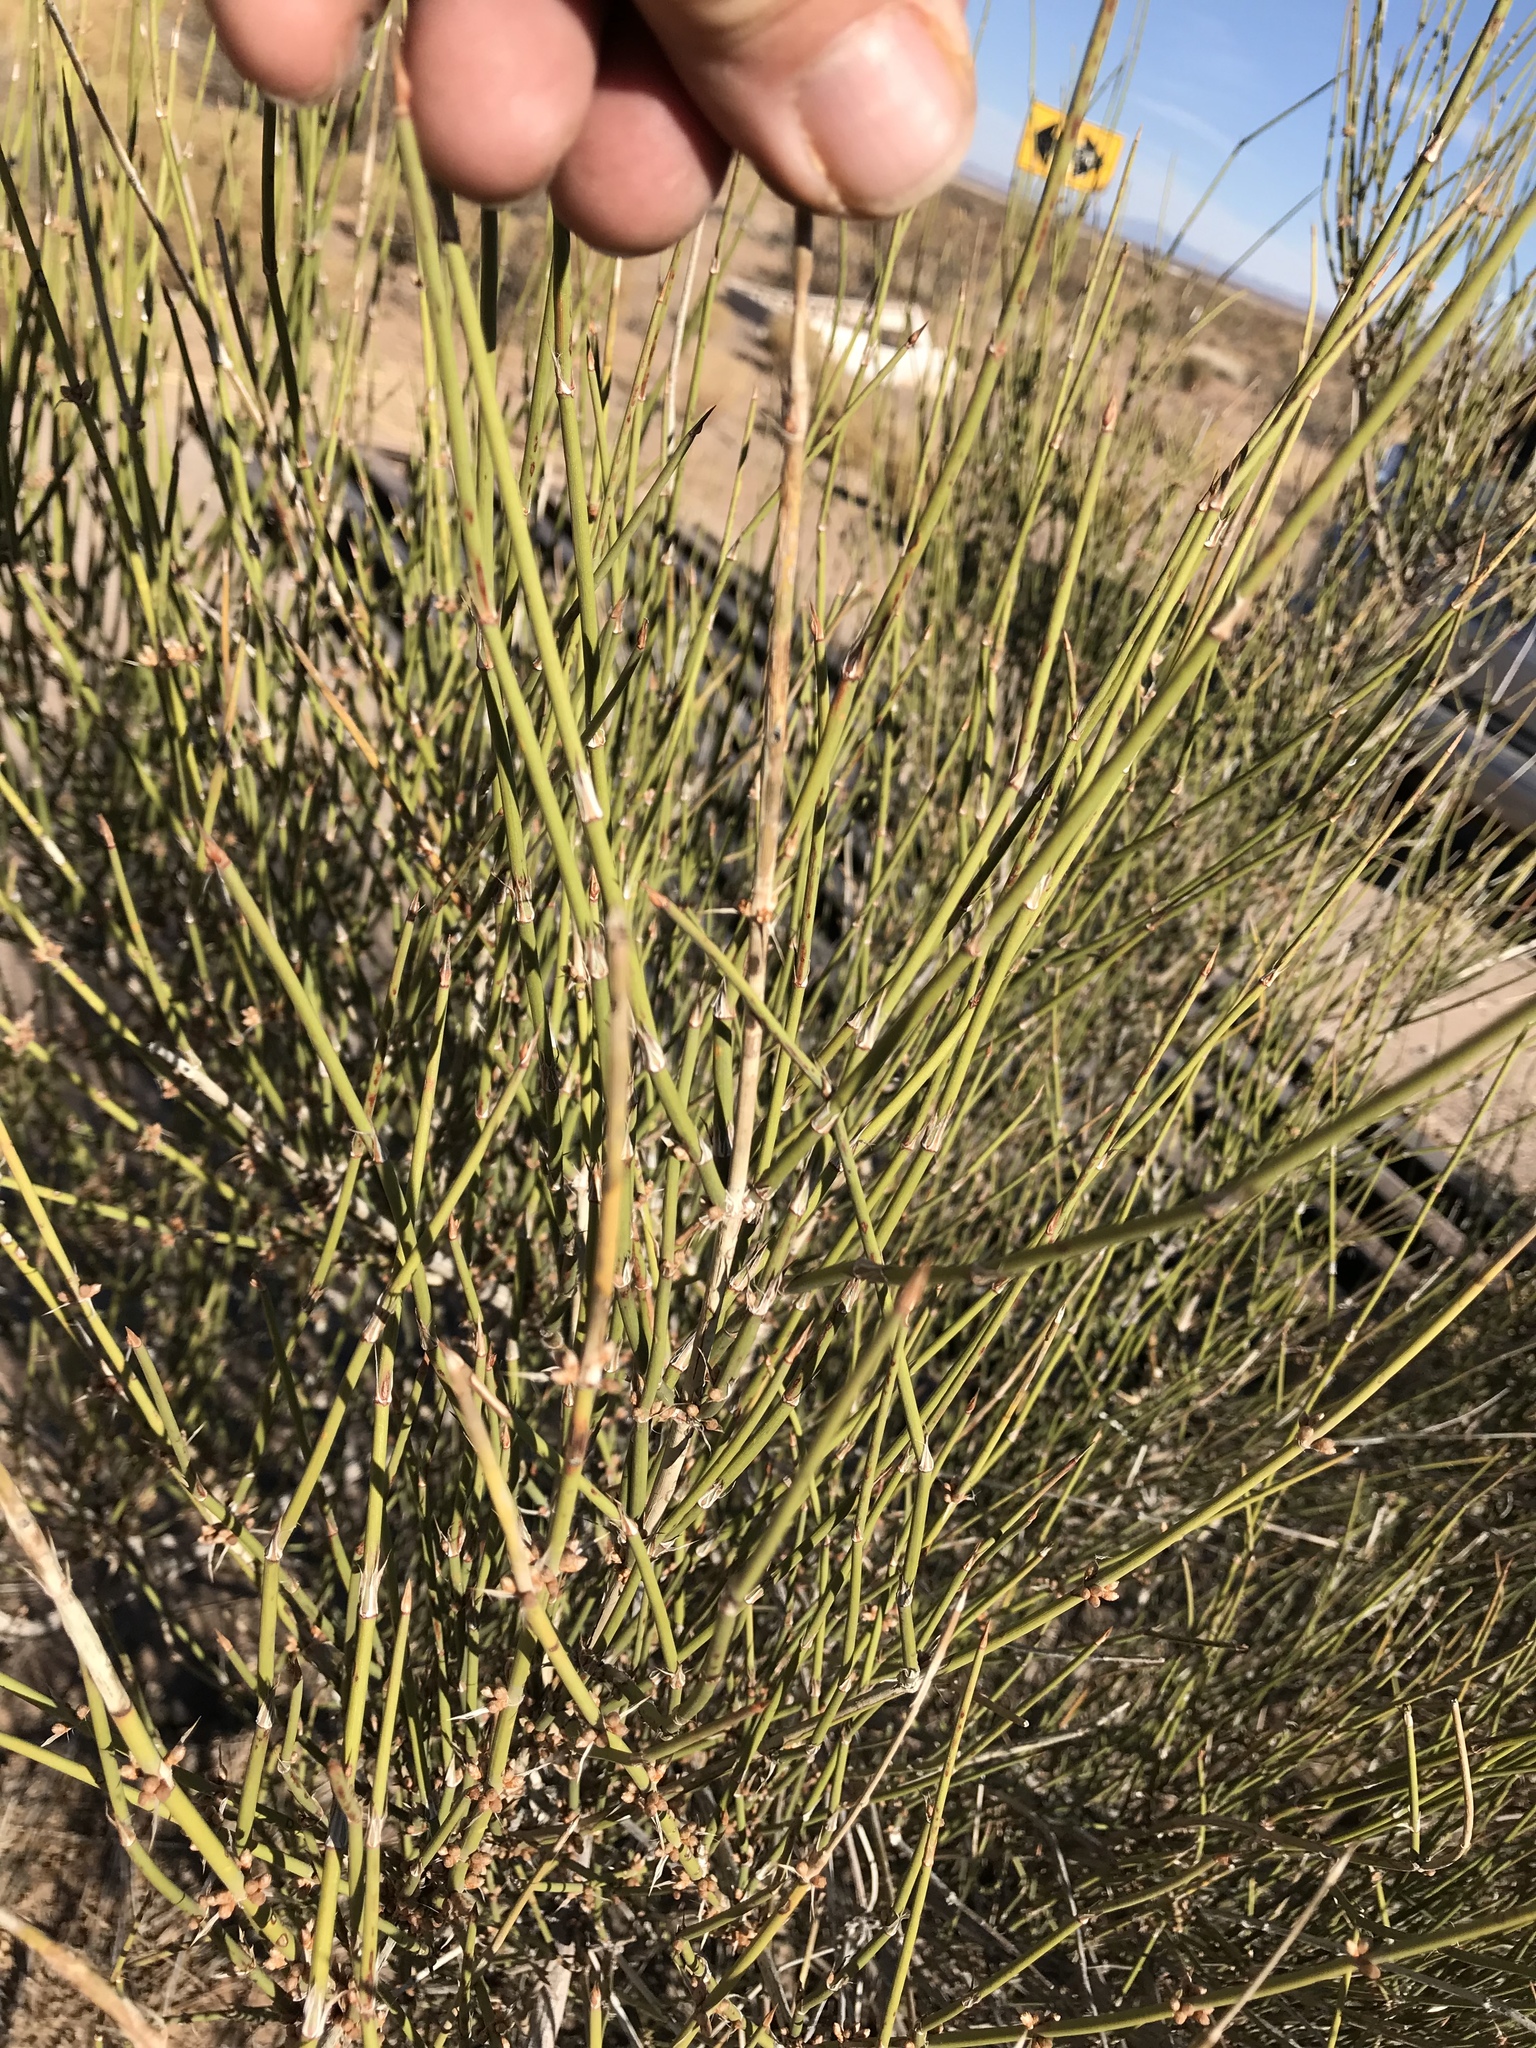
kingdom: Plantae
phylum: Tracheophyta
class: Gnetopsida
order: Ephedrales
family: Ephedraceae
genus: Ephedra
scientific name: Ephedra trifurca
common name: Mexican-tea
